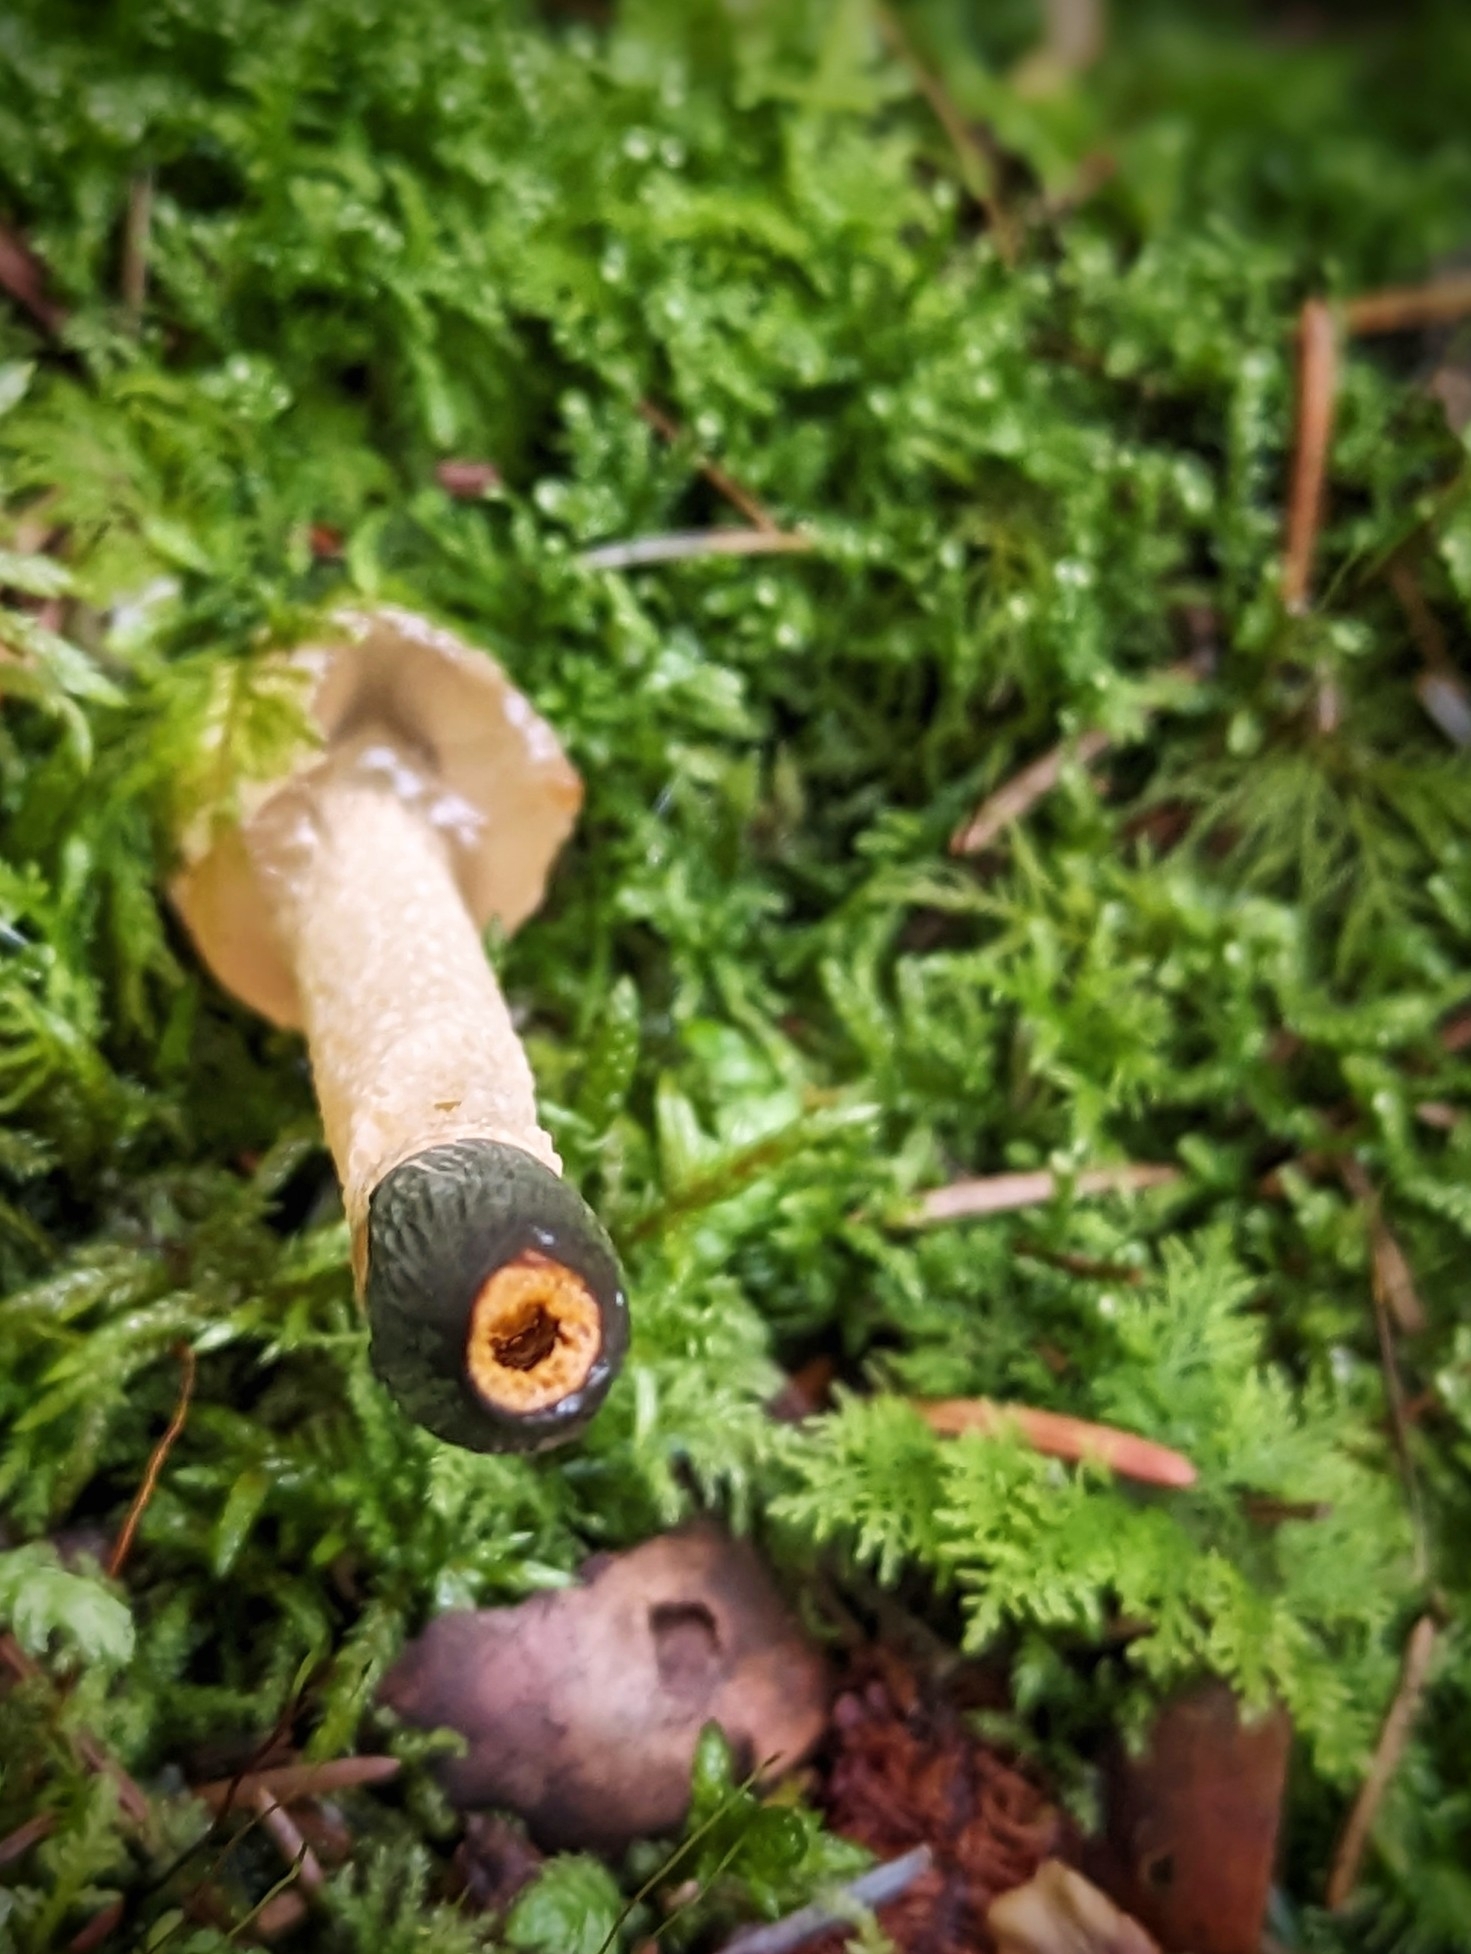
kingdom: Fungi
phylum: Basidiomycota
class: Agaricomycetes
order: Phallales
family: Phallaceae
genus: Mutinus
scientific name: Mutinus caninus
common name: Dog stinkhorn
